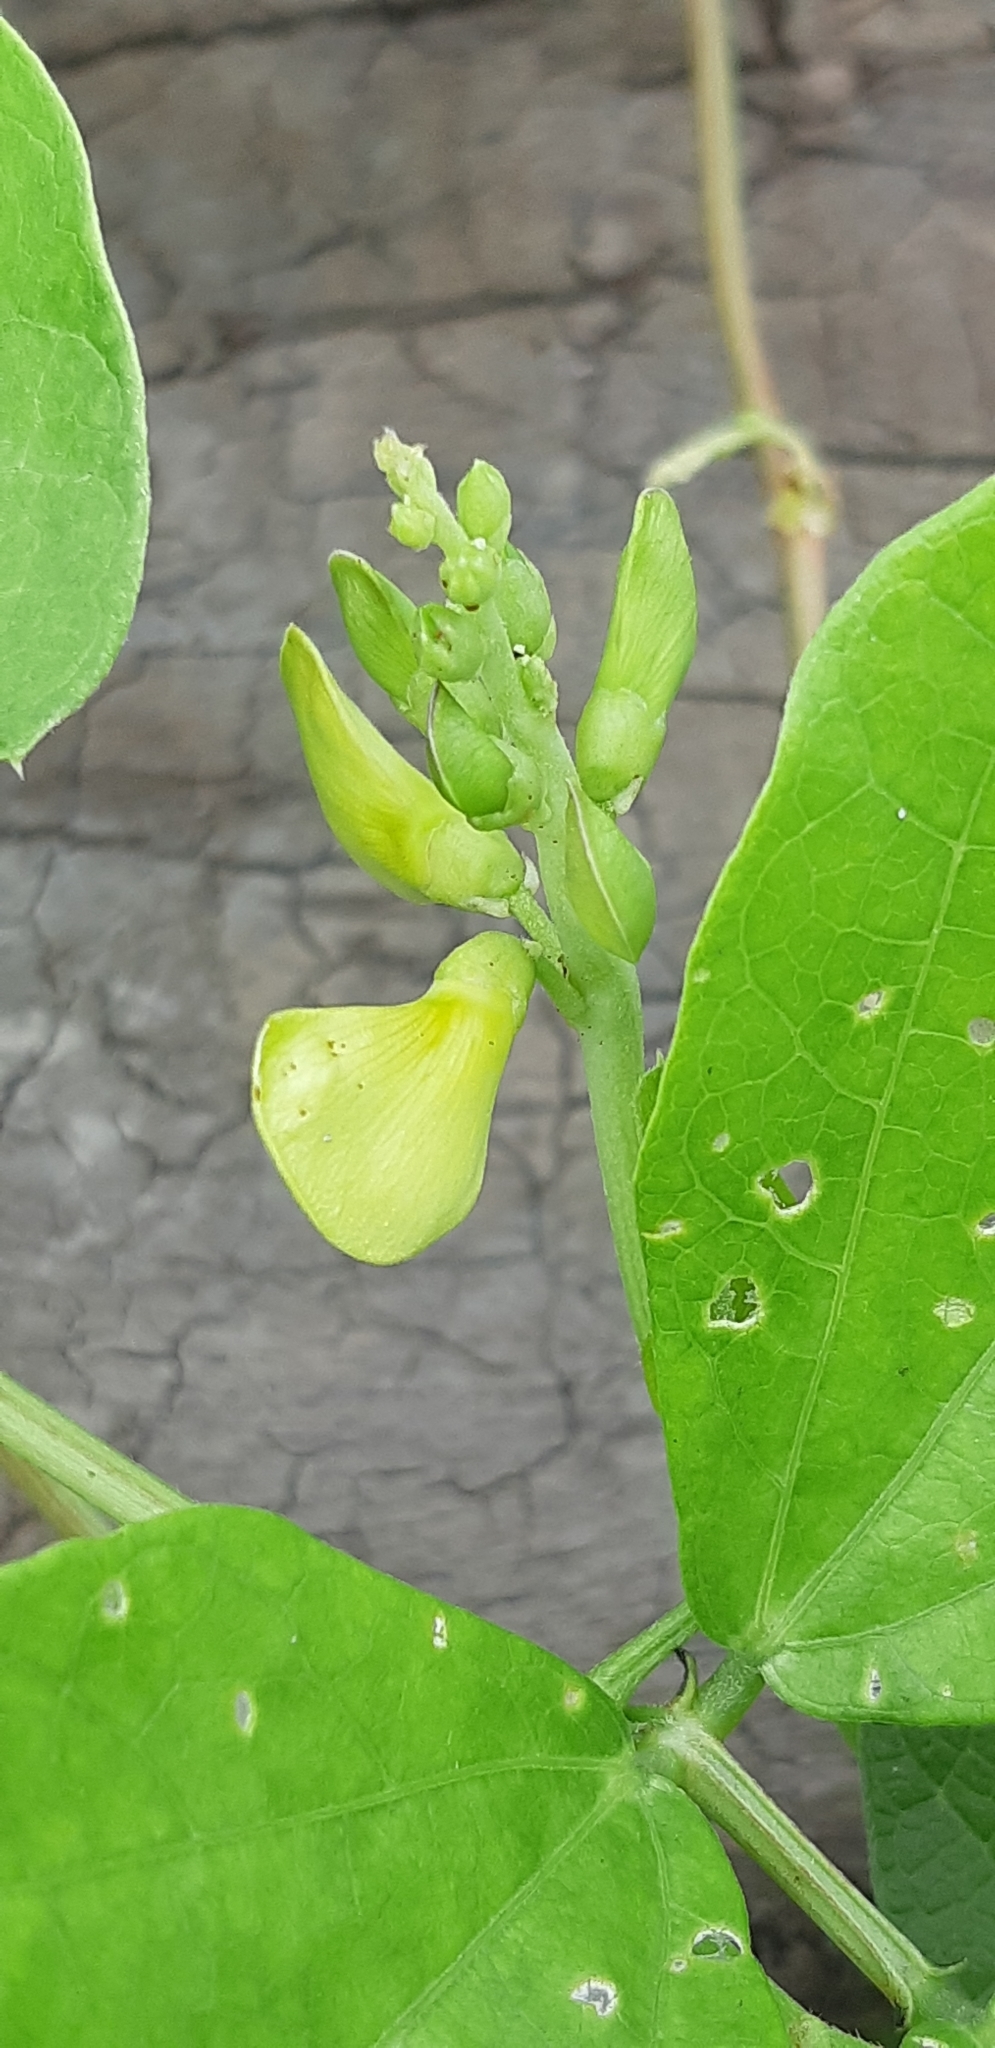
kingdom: Plantae
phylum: Tracheophyta
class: Magnoliopsida
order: Fabales
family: Fabaceae
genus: Vigna
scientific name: Vigna marina
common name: Dune-bean
